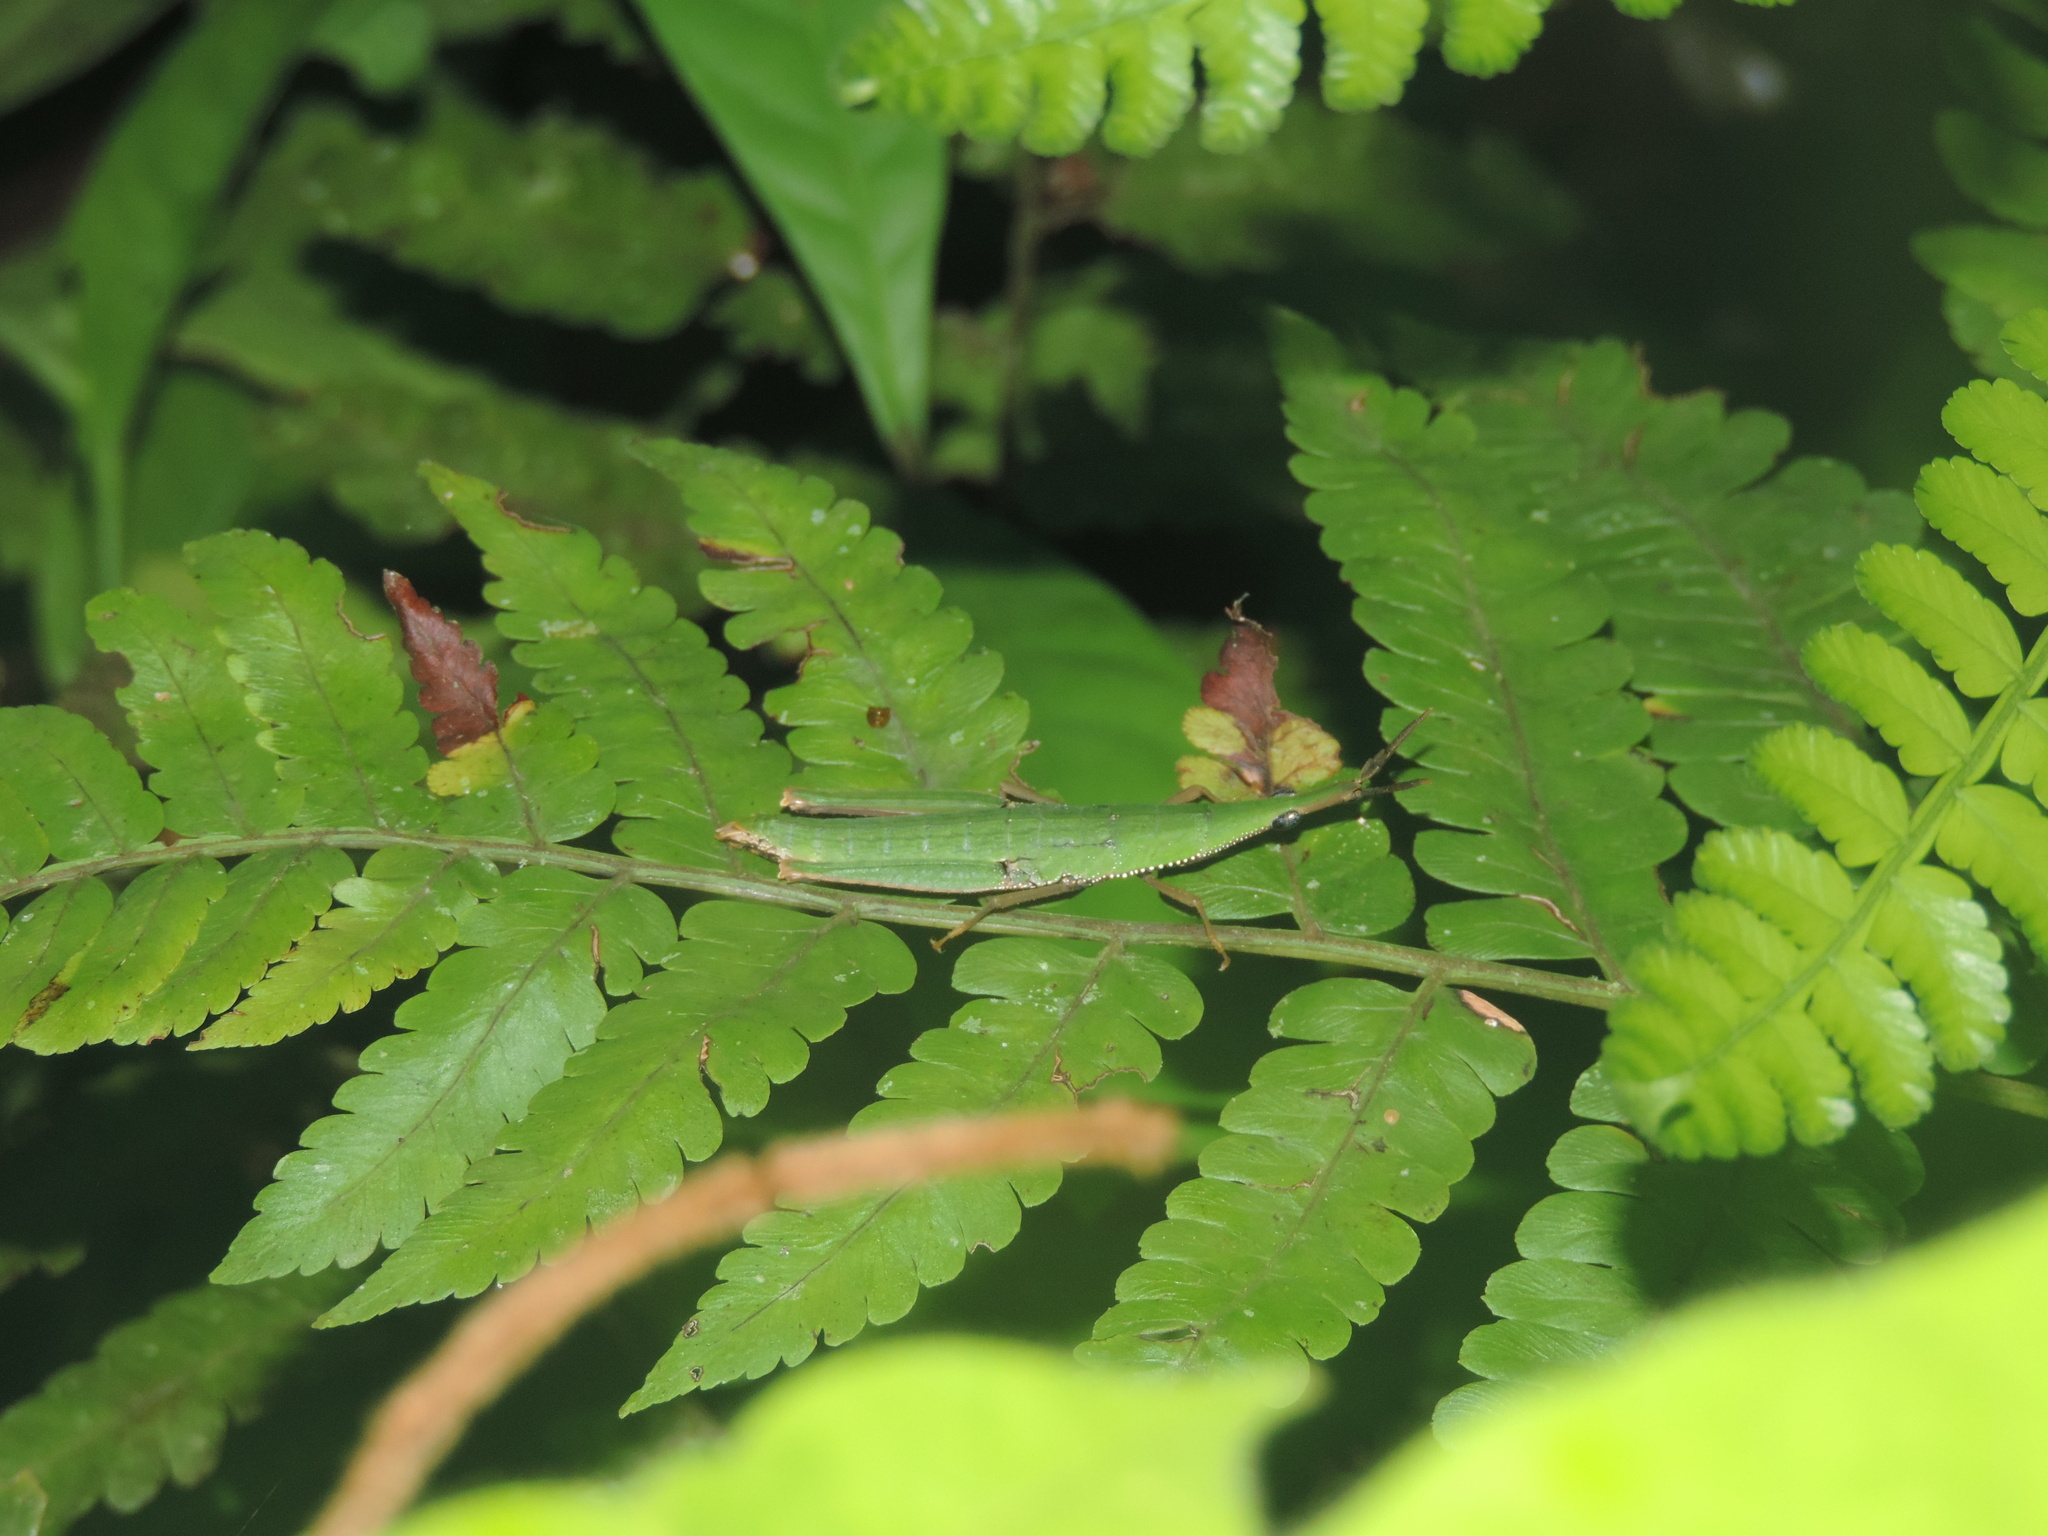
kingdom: Animalia
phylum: Arthropoda
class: Insecta
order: Orthoptera
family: Pyrgomorphidae
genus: Omura
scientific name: Omura congrua
